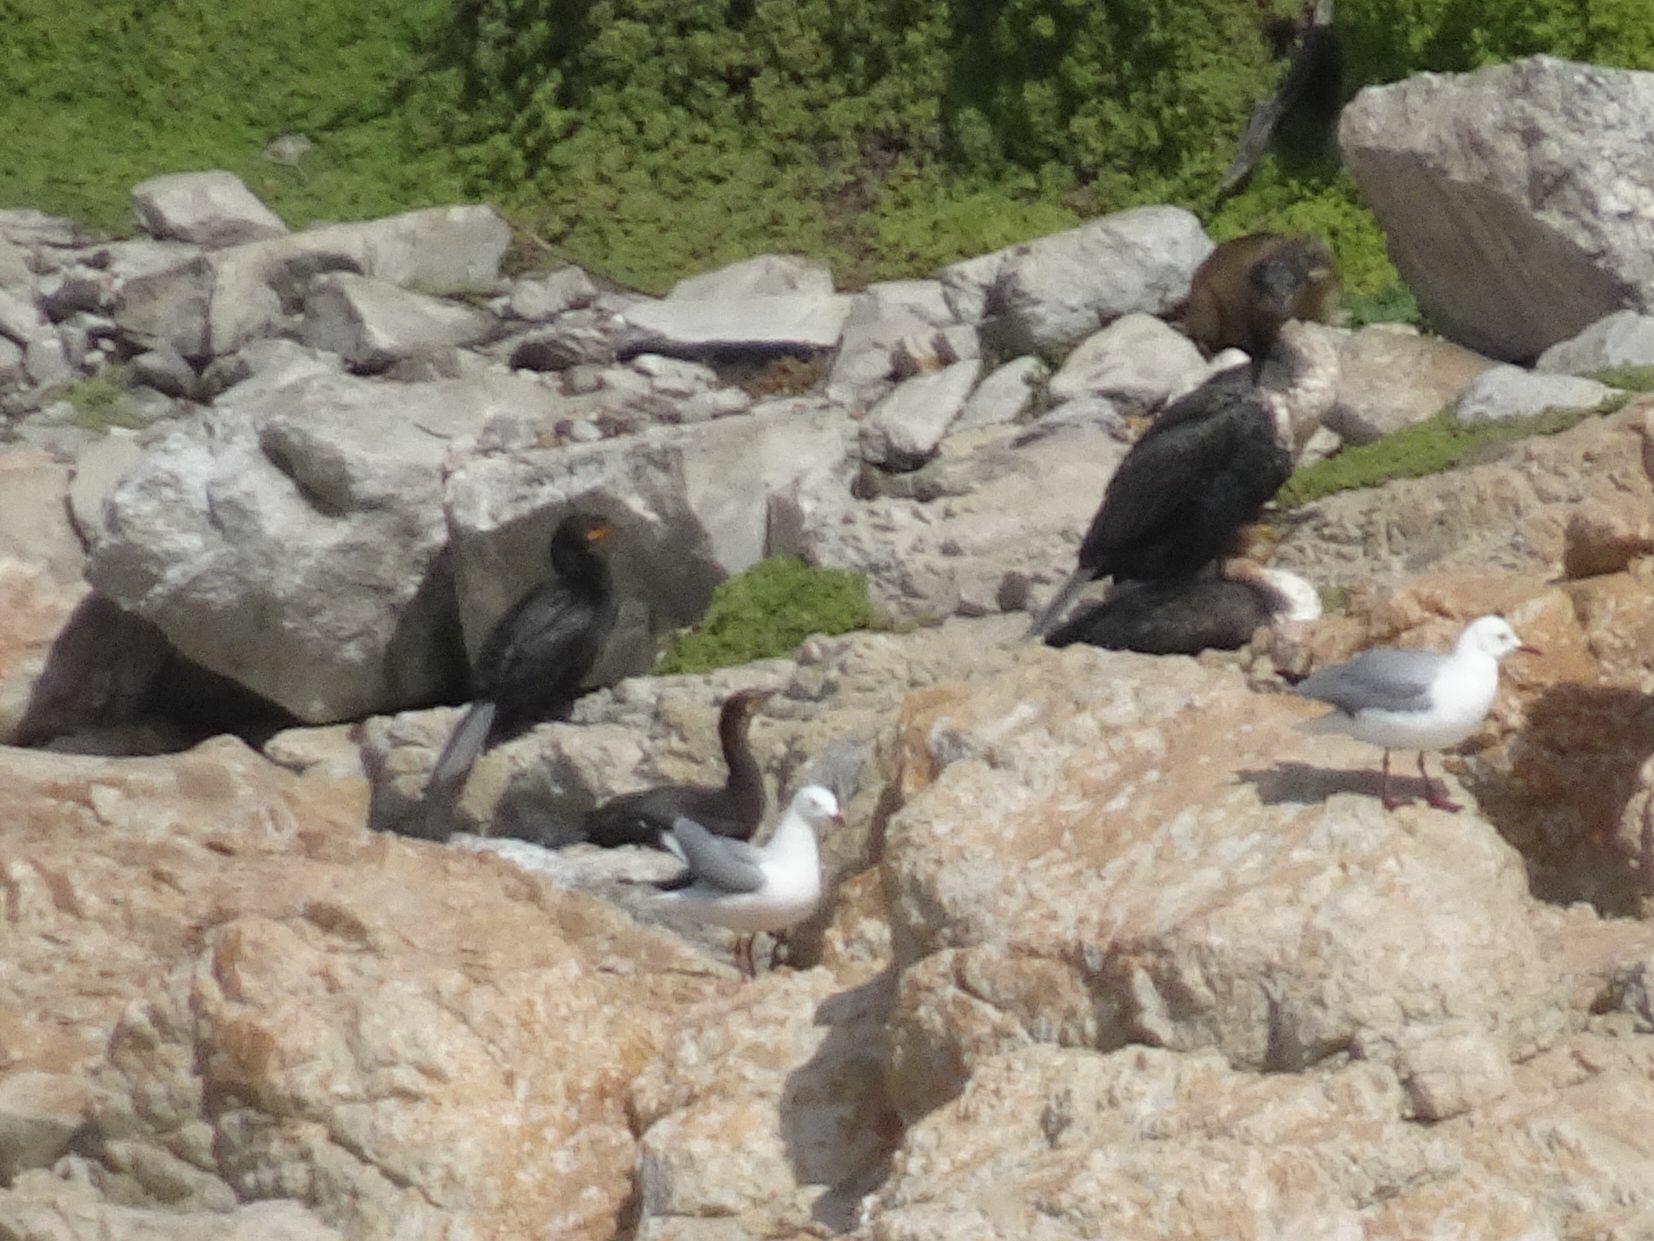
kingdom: Animalia
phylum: Chordata
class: Aves
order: Suliformes
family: Phalacrocoracidae
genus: Phalacrocorax
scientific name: Phalacrocorax capensis
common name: Cape cormorant
